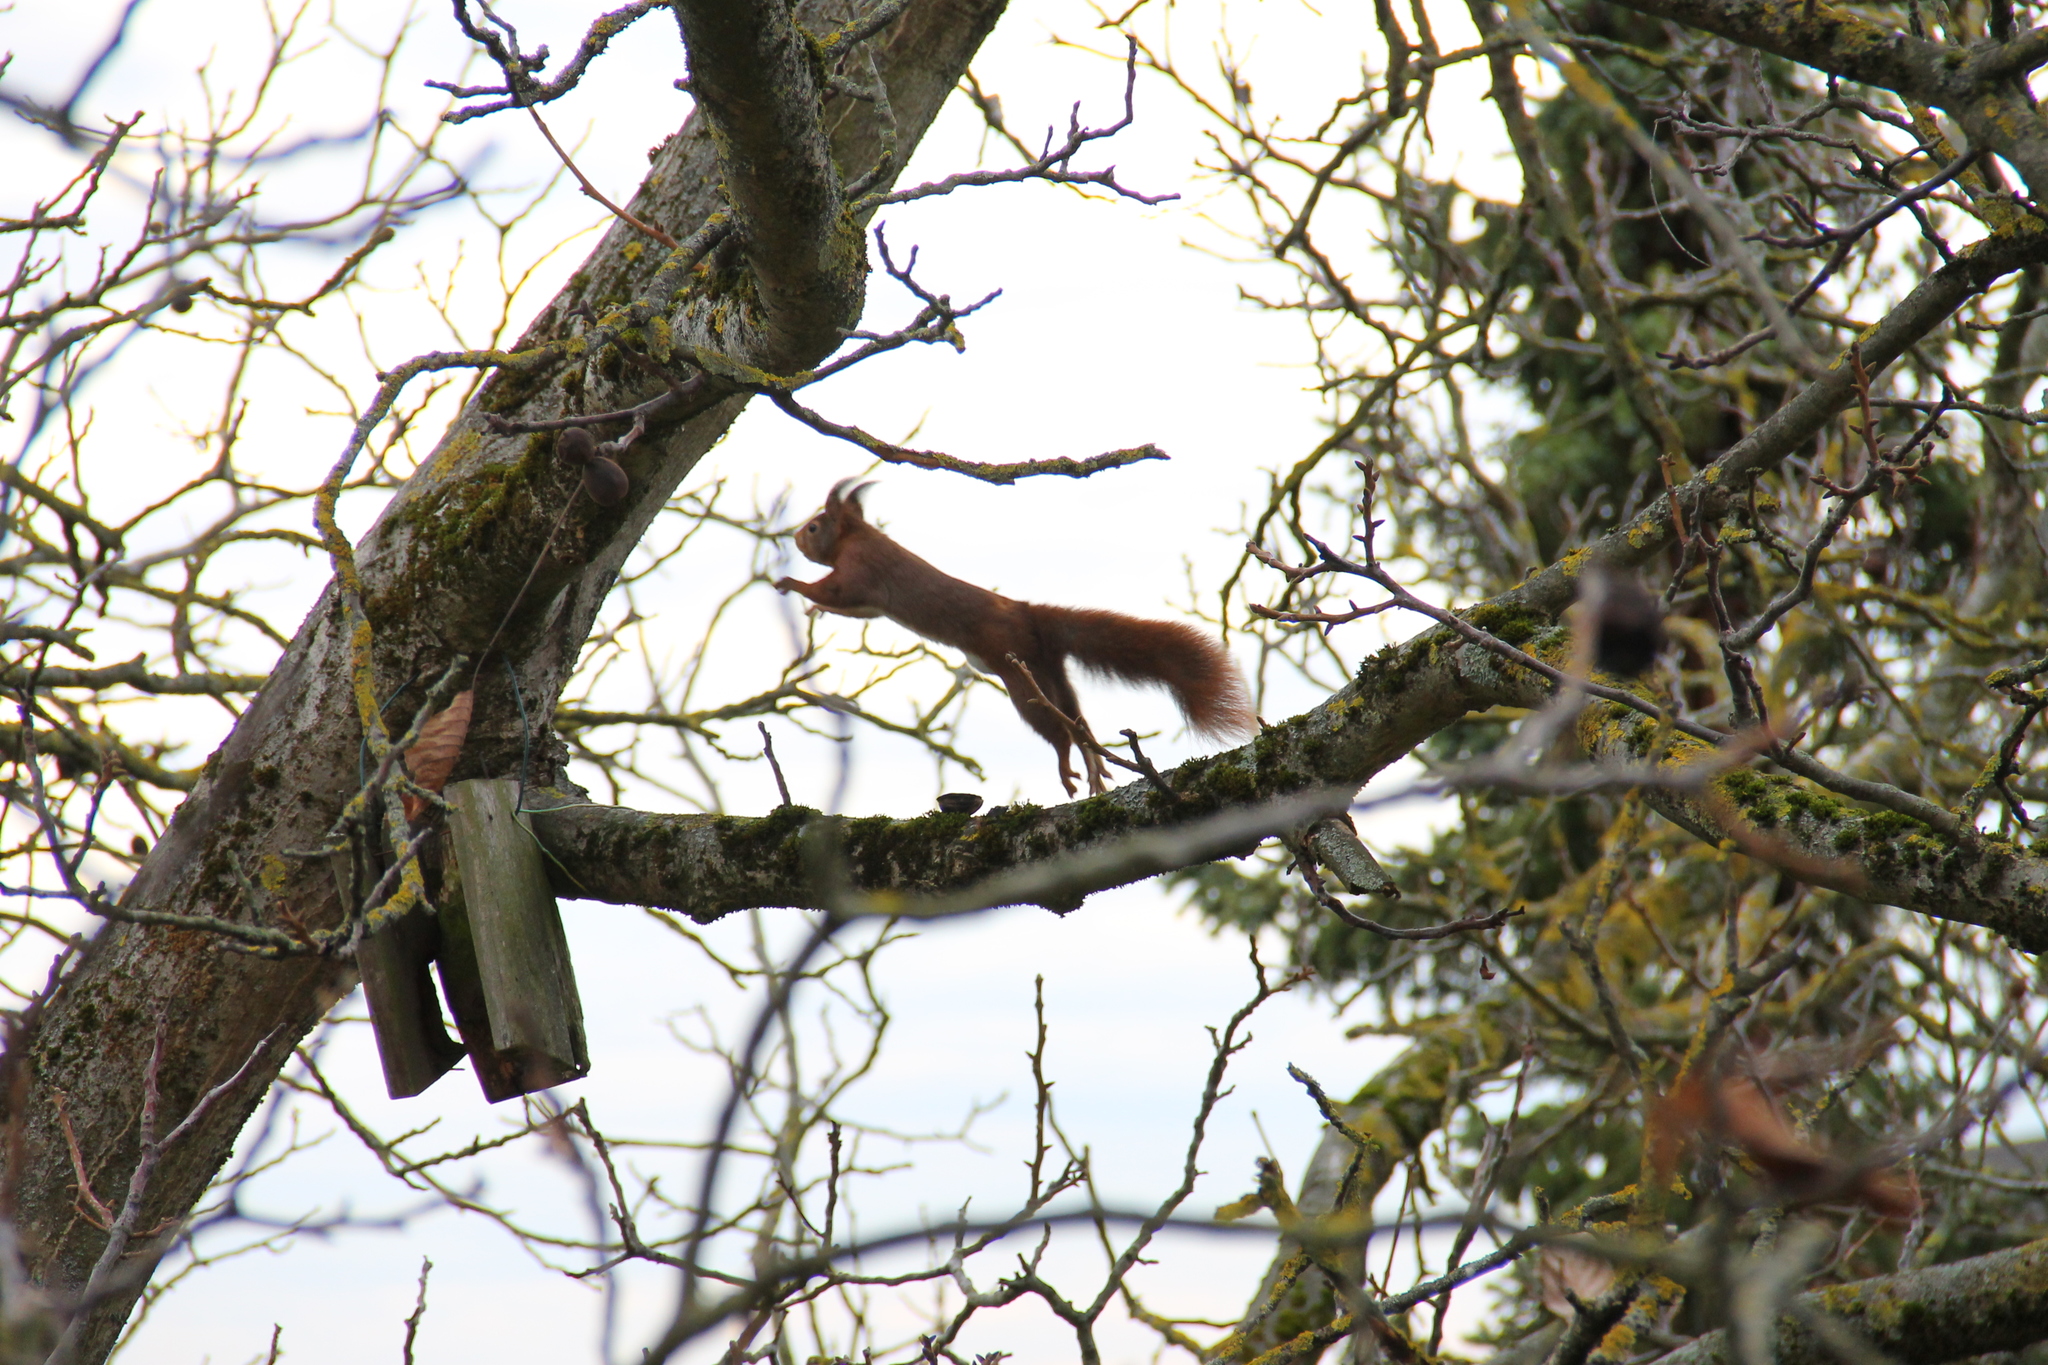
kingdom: Animalia
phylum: Chordata
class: Mammalia
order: Rodentia
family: Sciuridae
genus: Sciurus
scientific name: Sciurus vulgaris
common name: Eurasian red squirrel
